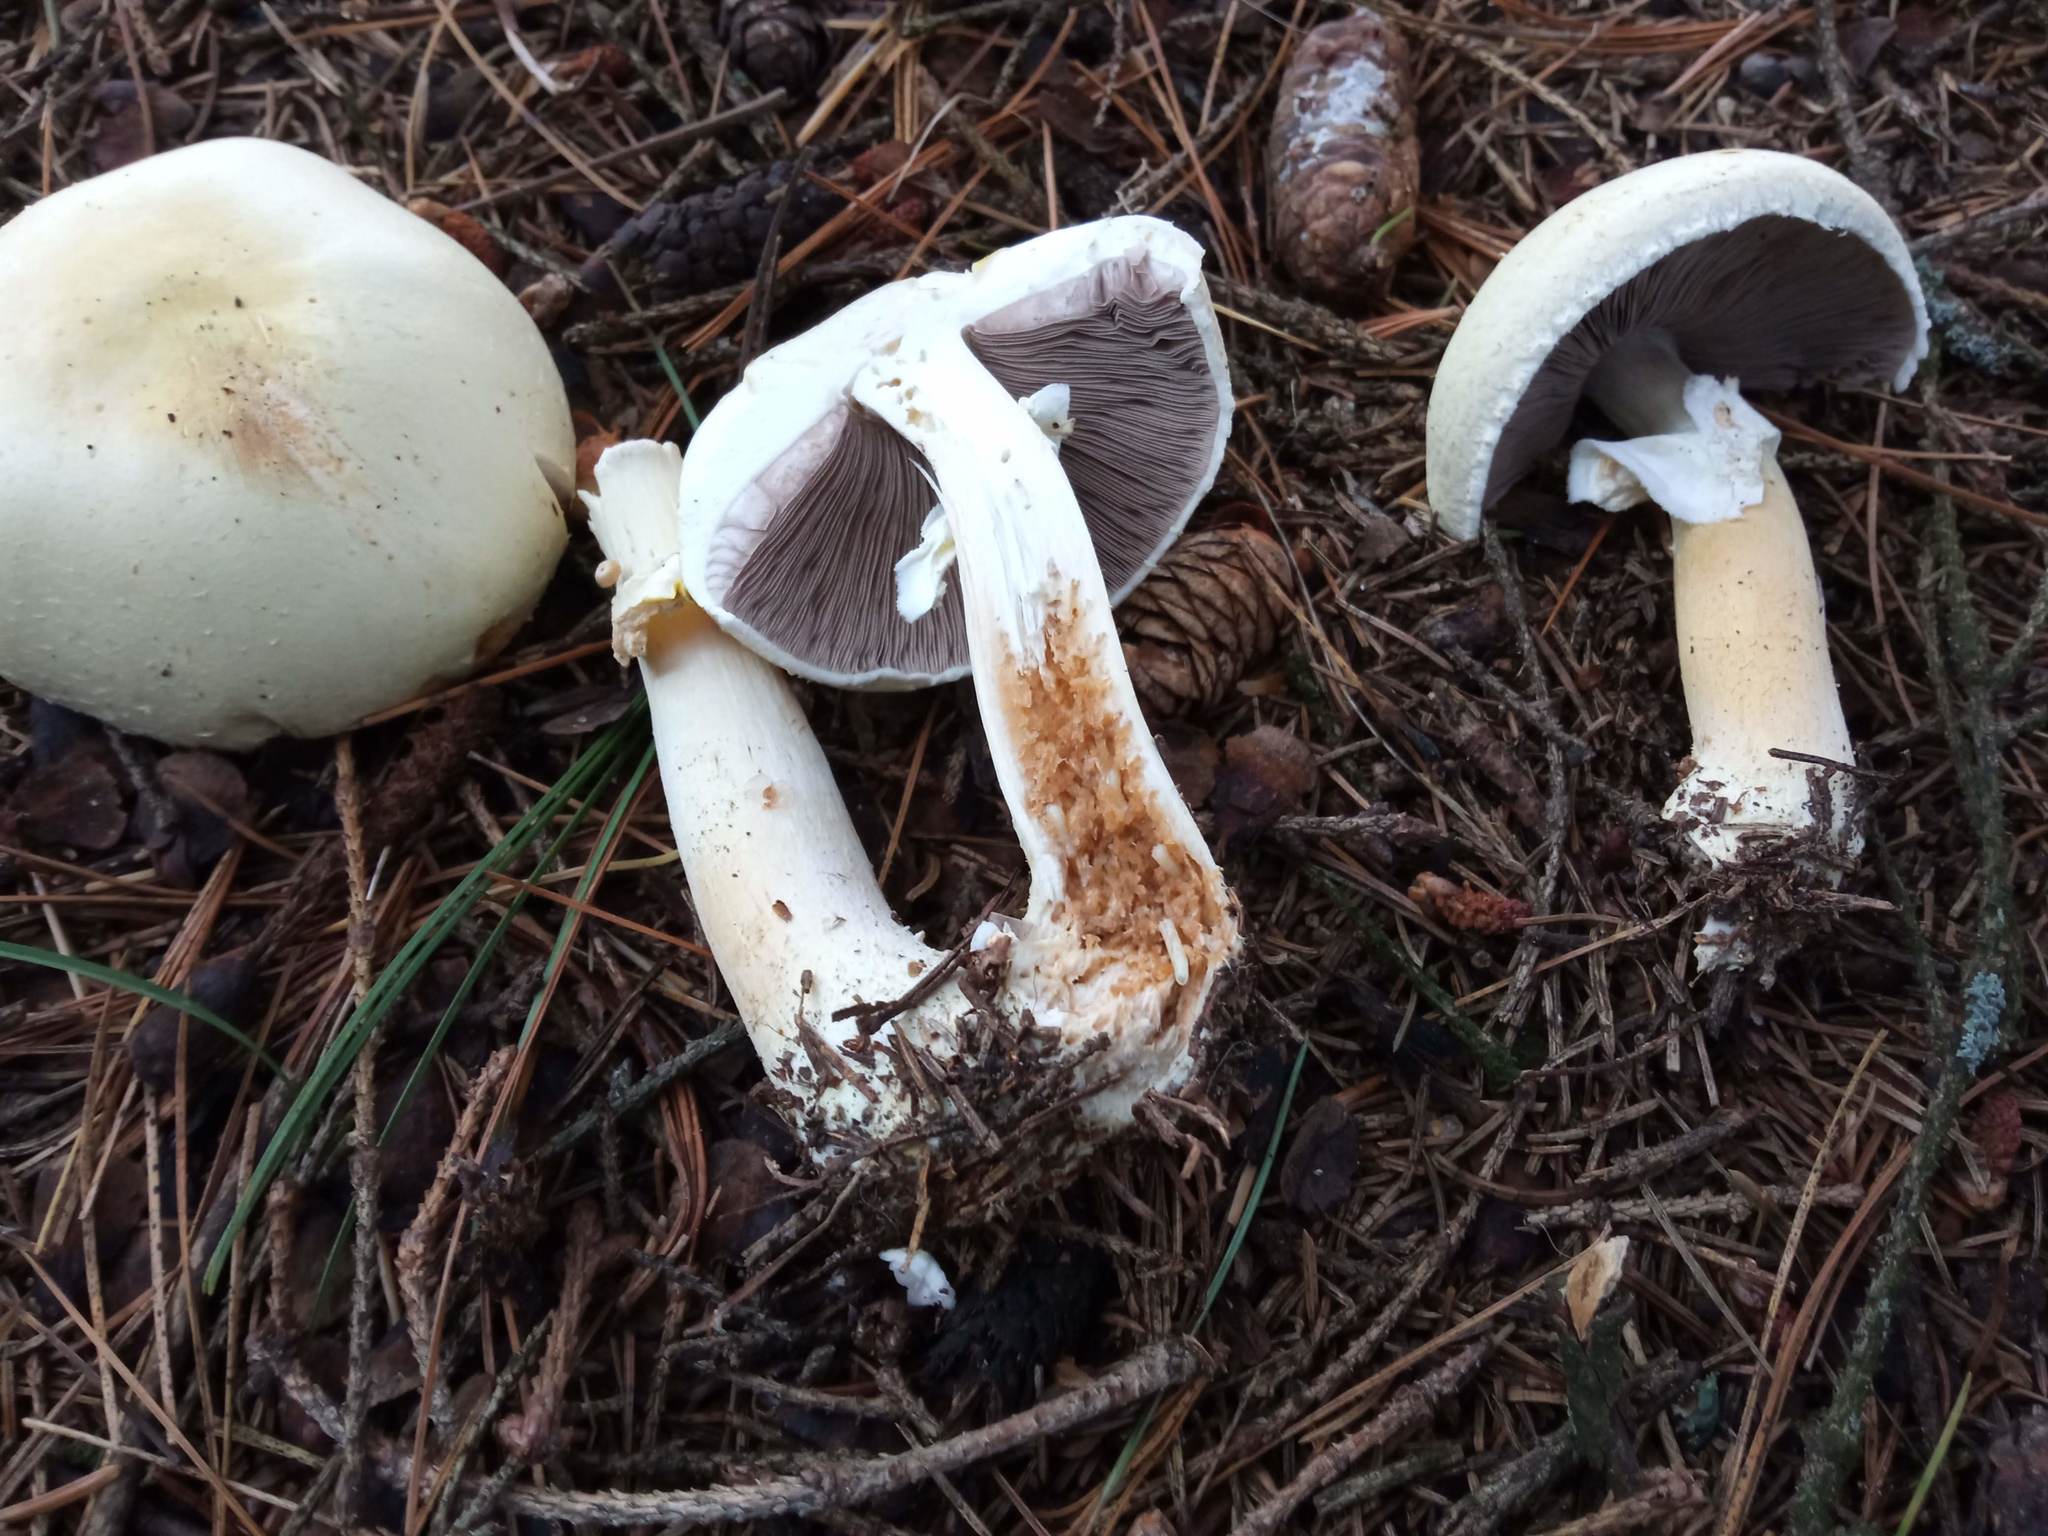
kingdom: Fungi
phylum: Basidiomycota
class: Agaricomycetes
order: Agaricales
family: Agaricaceae
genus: Agaricus
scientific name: Agaricus sylvicola
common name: Wood mushroom
